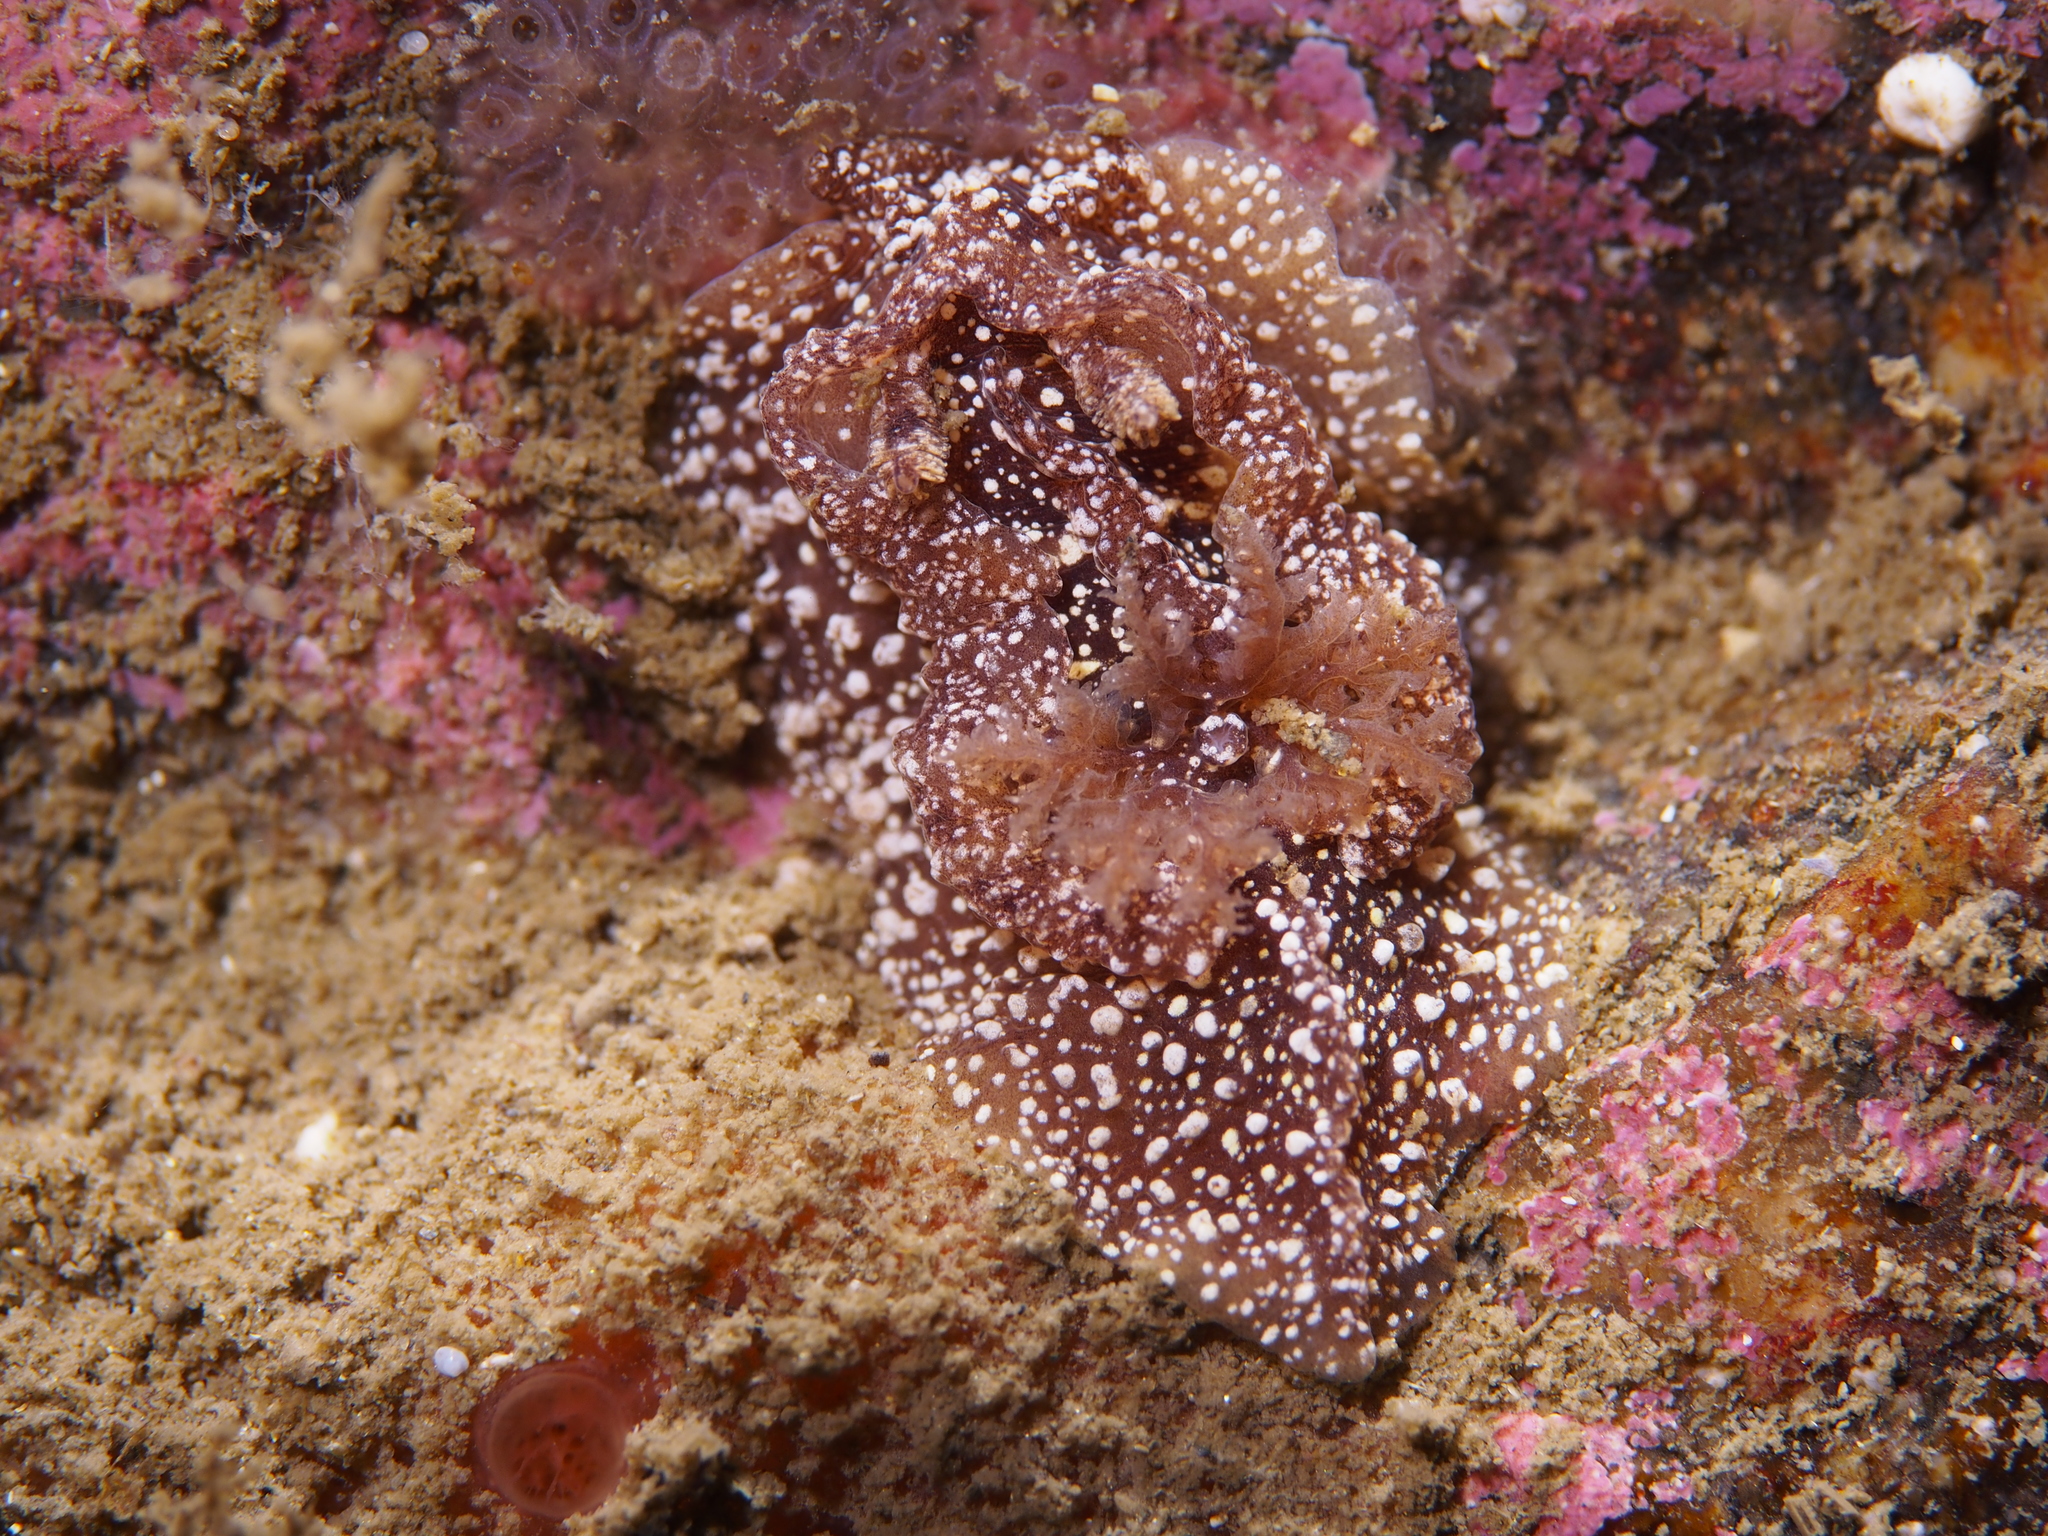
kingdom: Animalia
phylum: Mollusca
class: Gastropoda
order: Nudibranchia
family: Goniodorididae
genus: Pelagella
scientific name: Pelagella castanea
